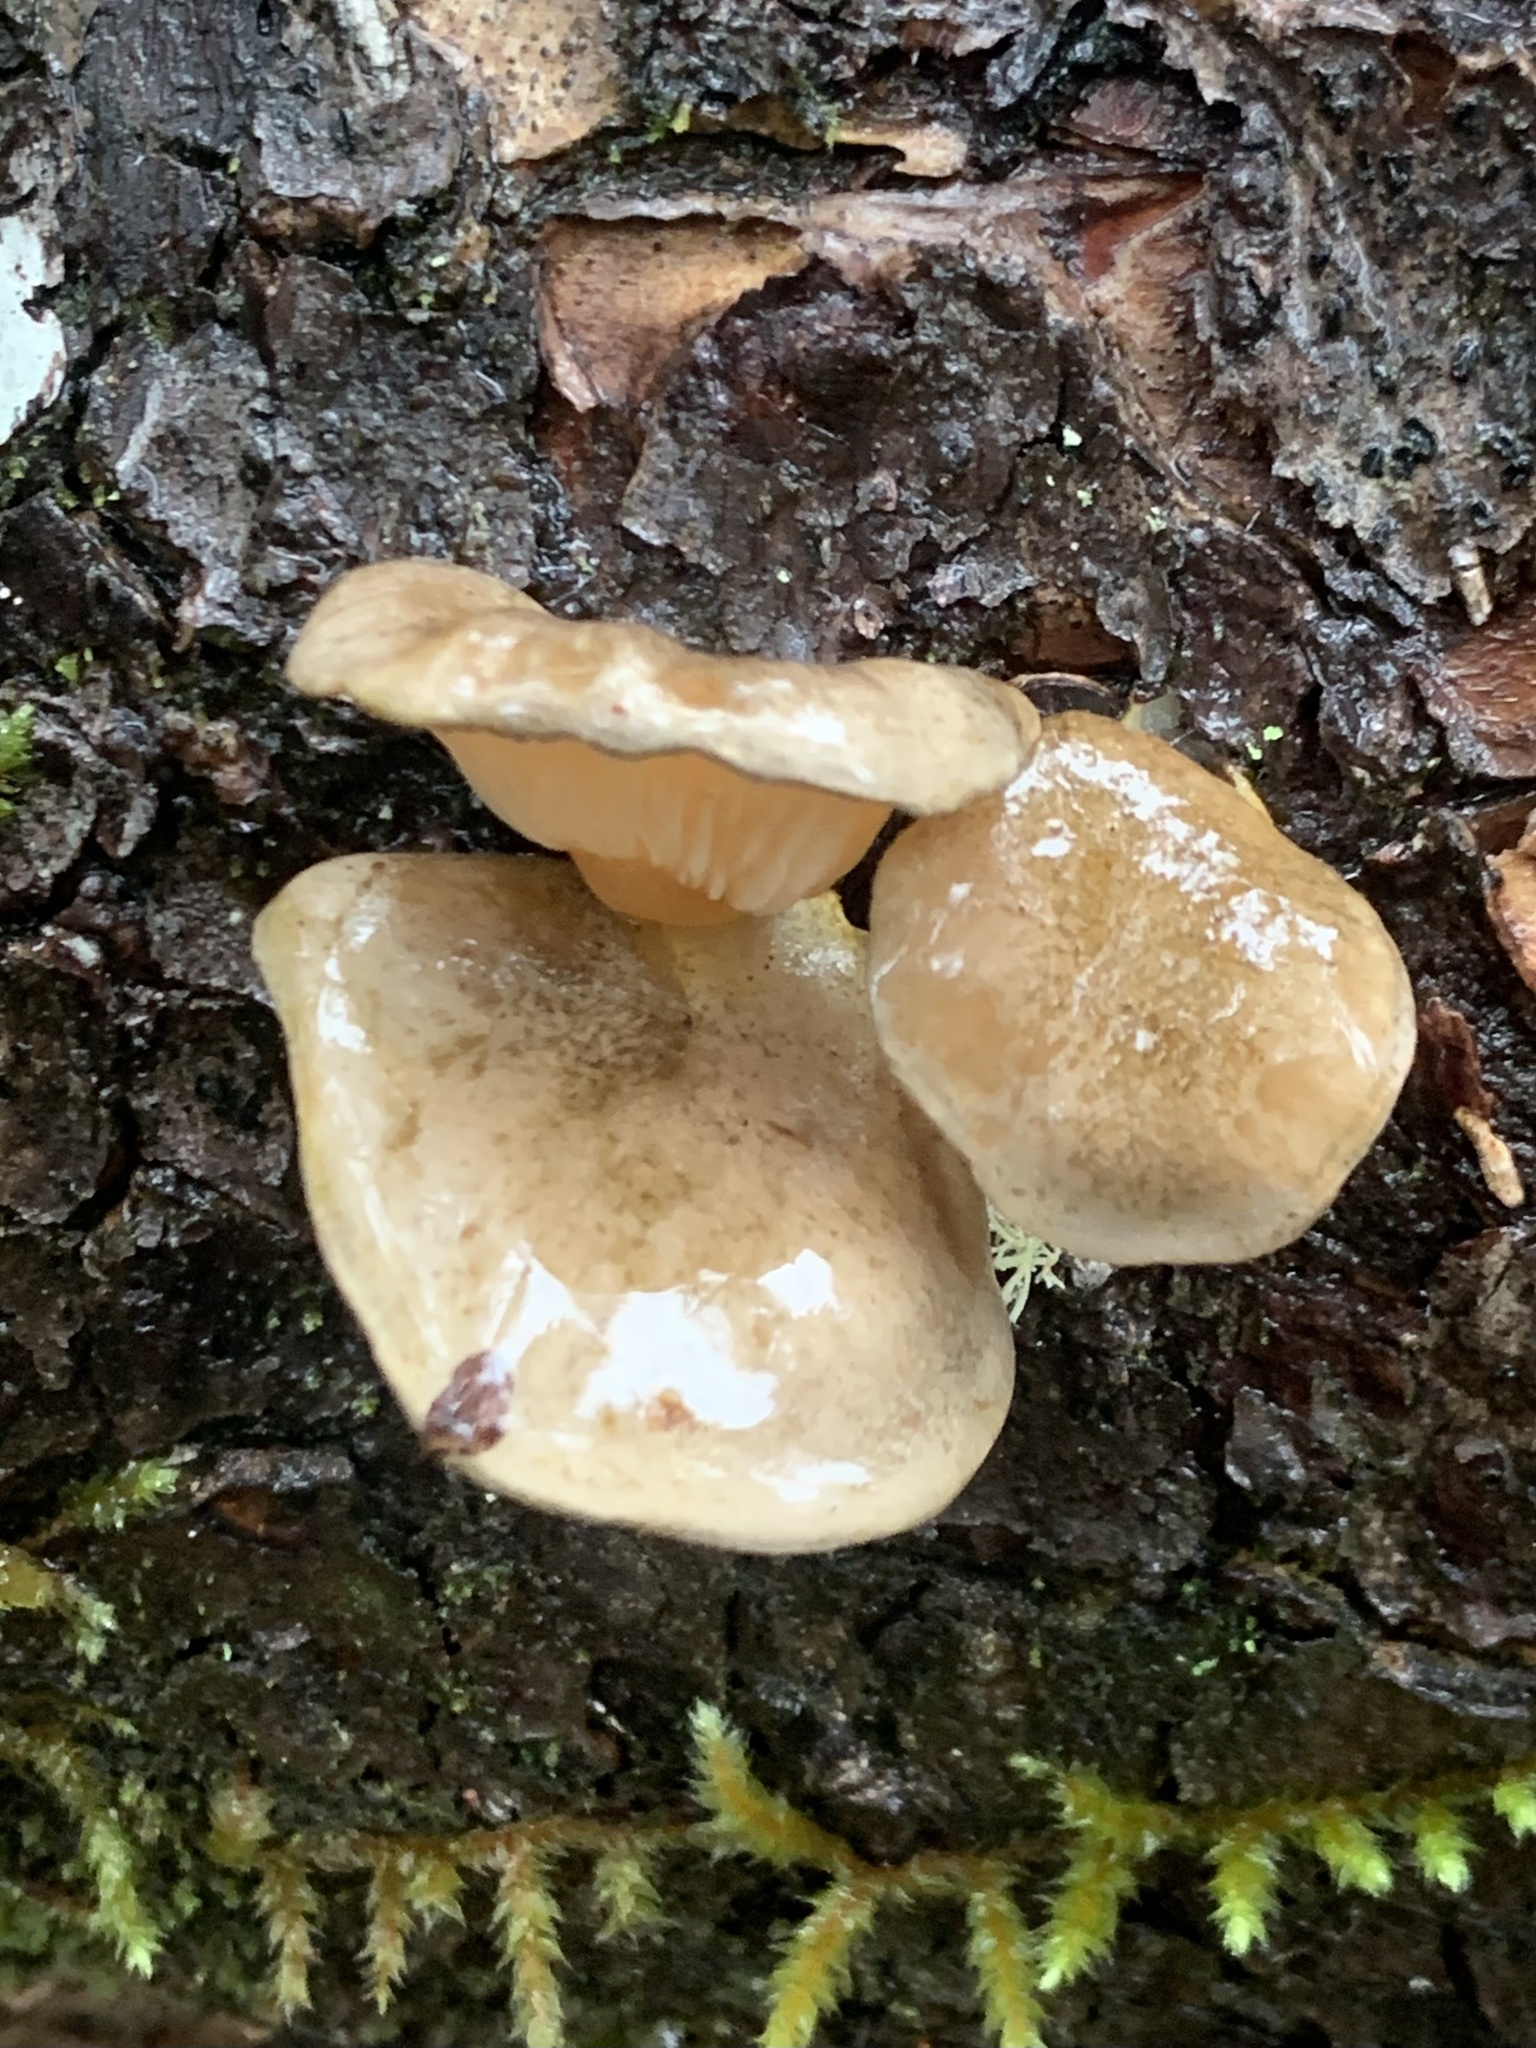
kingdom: Fungi
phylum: Basidiomycota
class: Agaricomycetes
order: Agaricales
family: Sarcomyxaceae
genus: Sarcomyxa
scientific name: Sarcomyxa serotina
